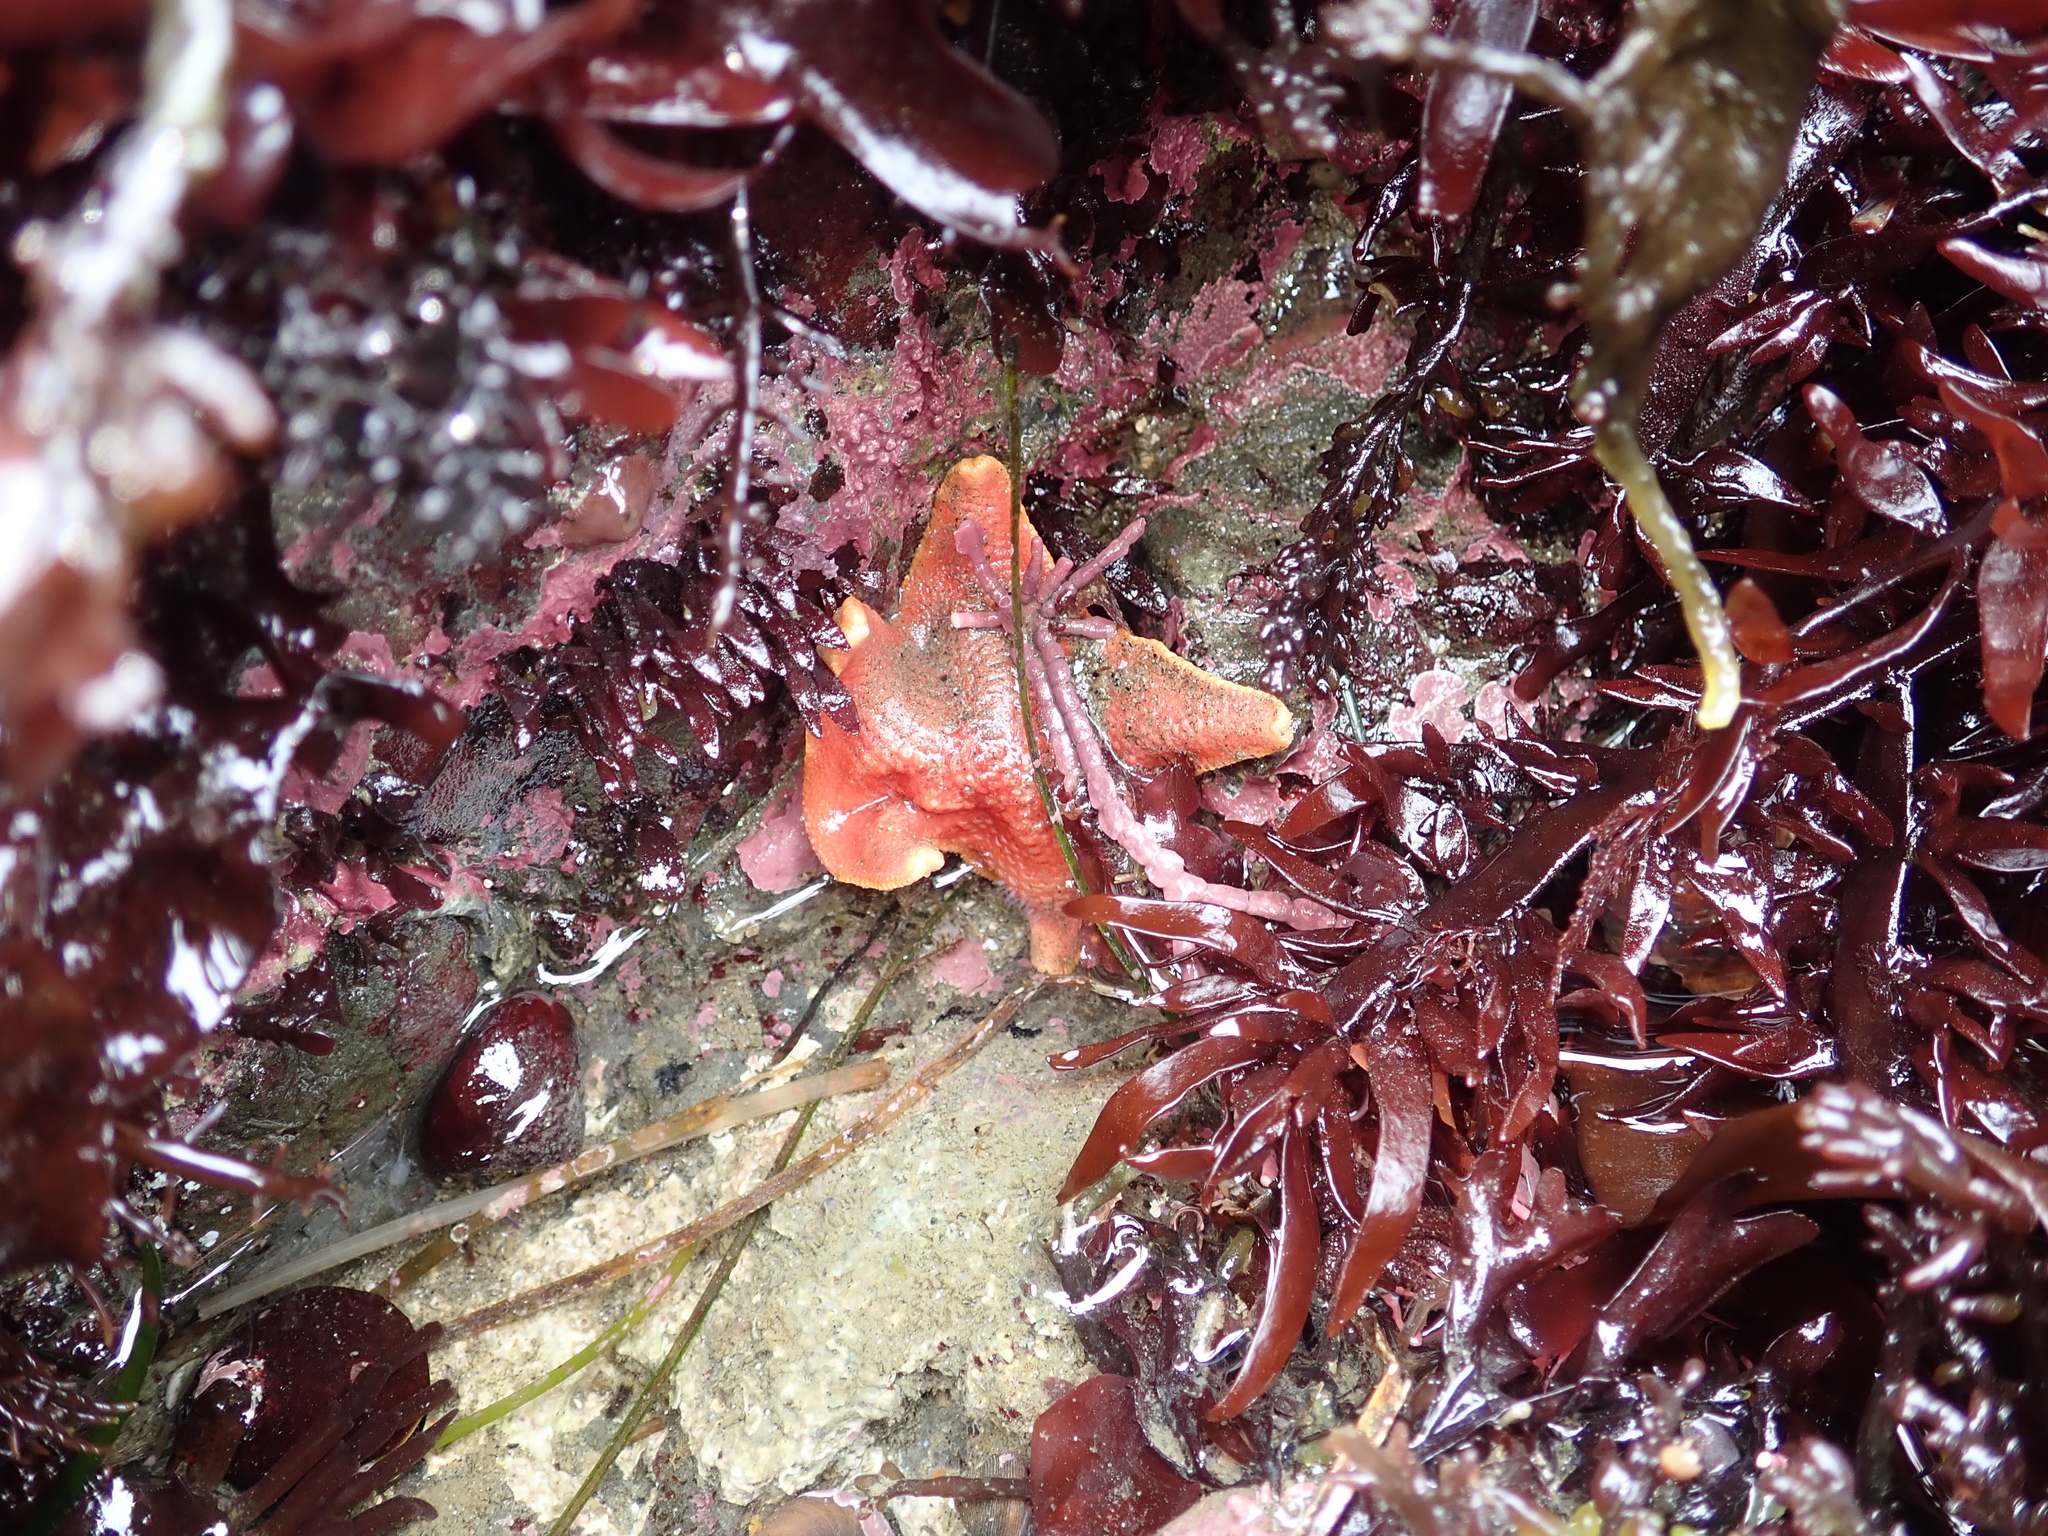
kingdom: Animalia
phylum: Echinodermata
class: Asteroidea
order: Valvatida
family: Asterinidae
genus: Patiria
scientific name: Patiria miniata
